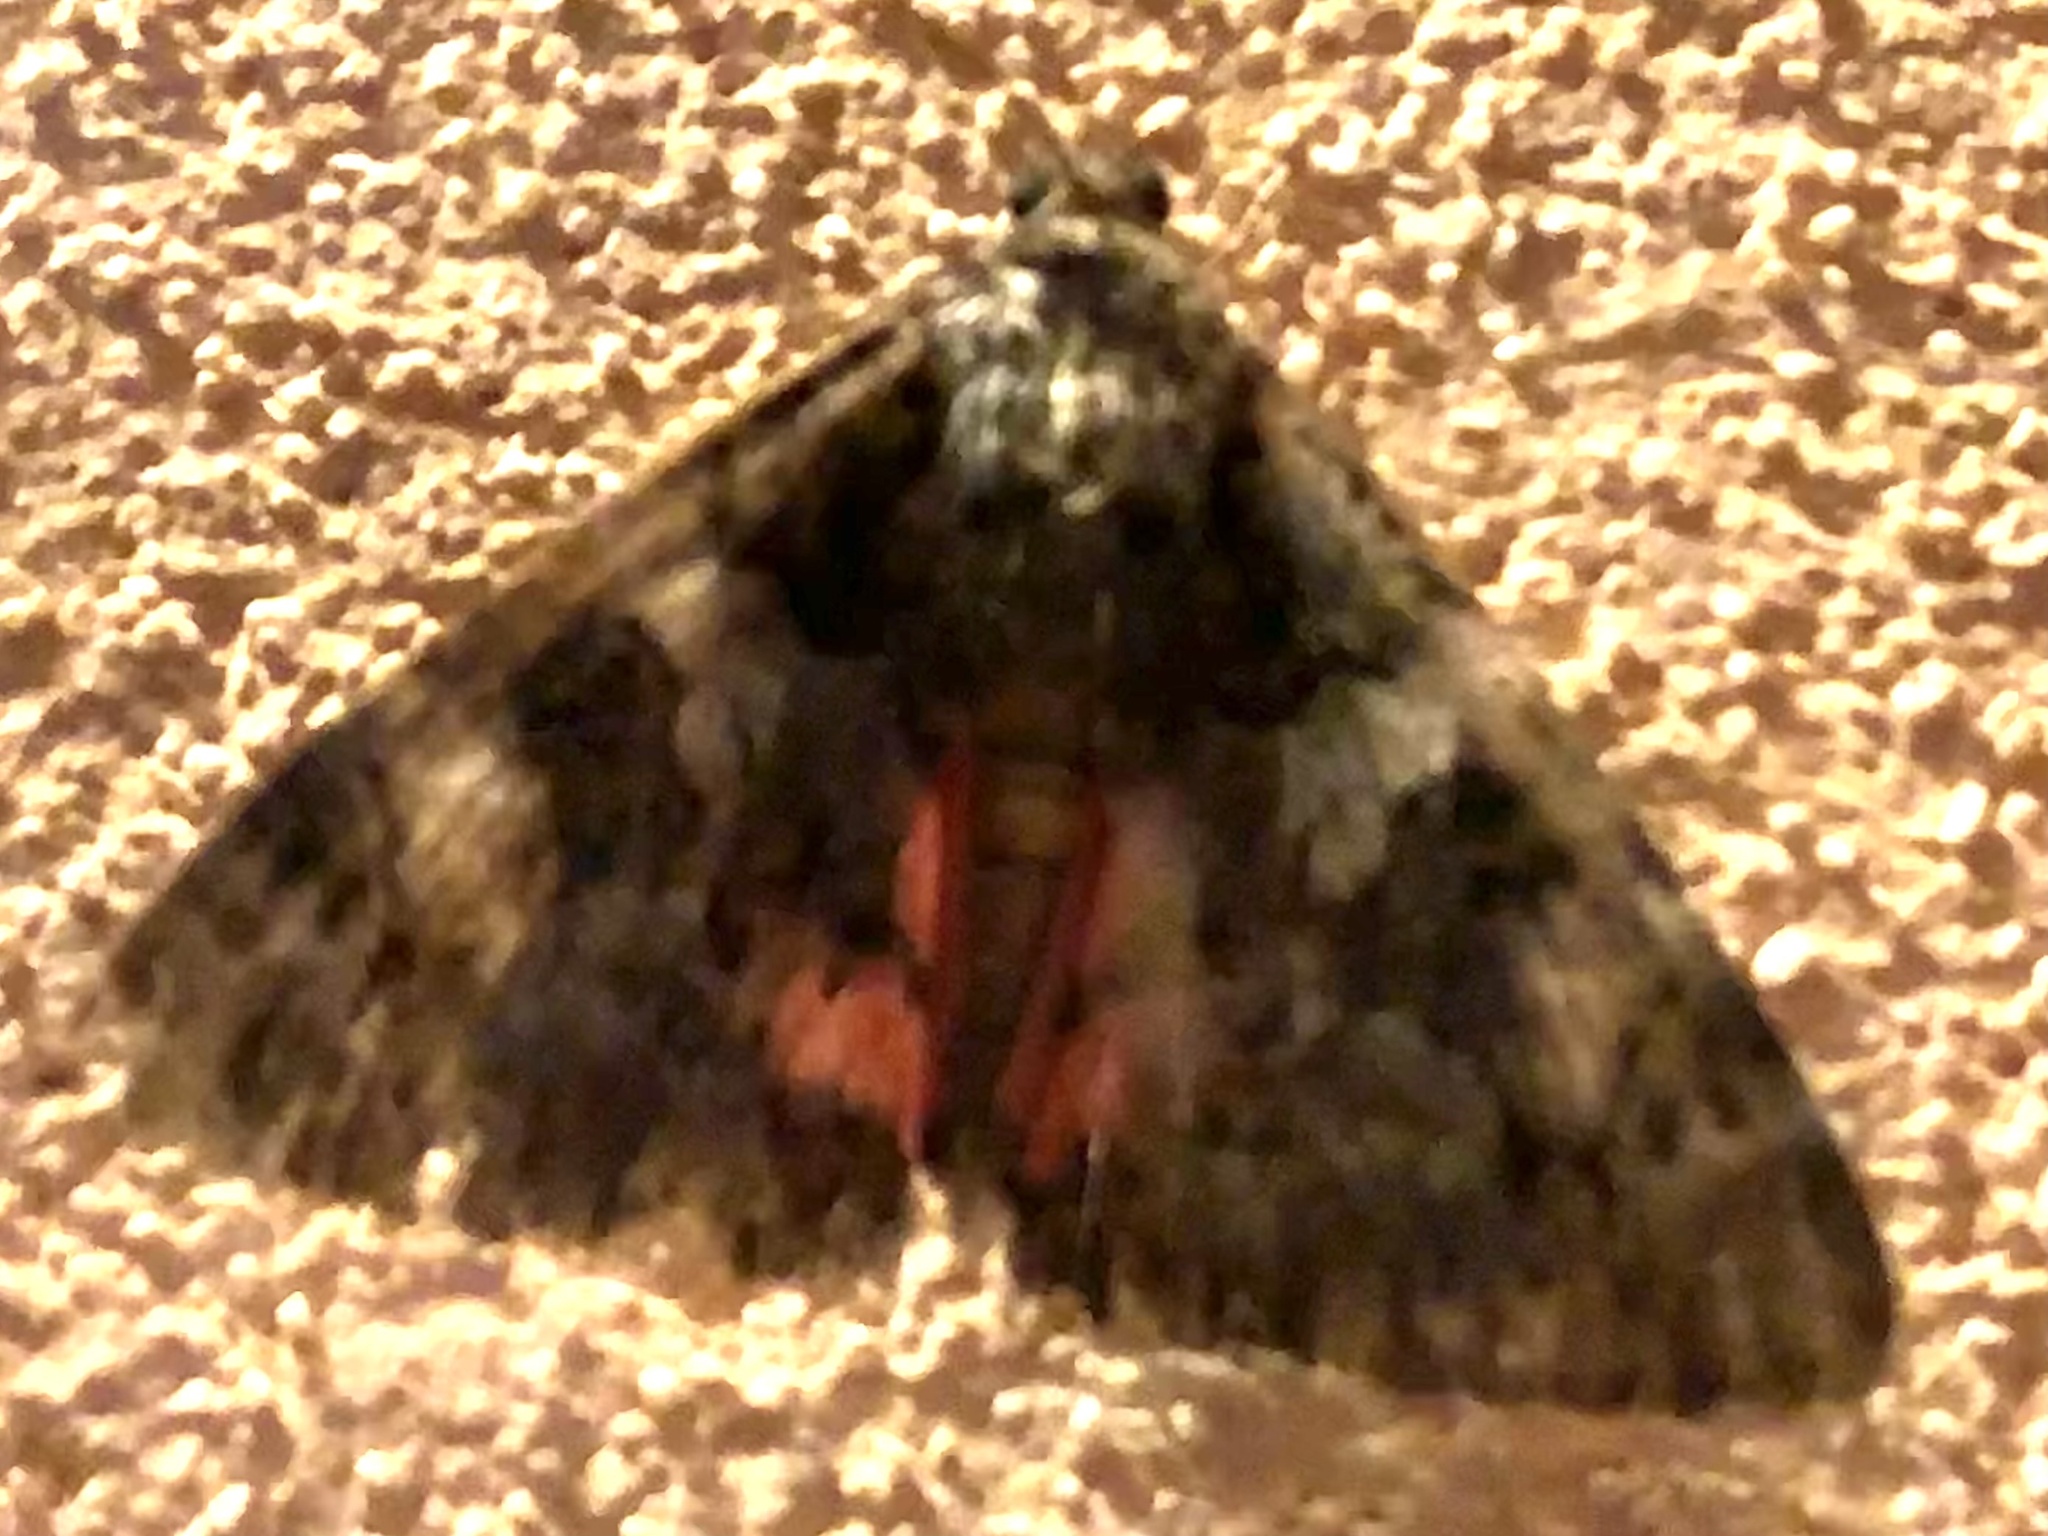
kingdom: Animalia
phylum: Arthropoda
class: Insecta
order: Lepidoptera
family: Erebidae
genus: Catocala
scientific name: Catocala coniuncta
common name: Minsmere crimson underwing
